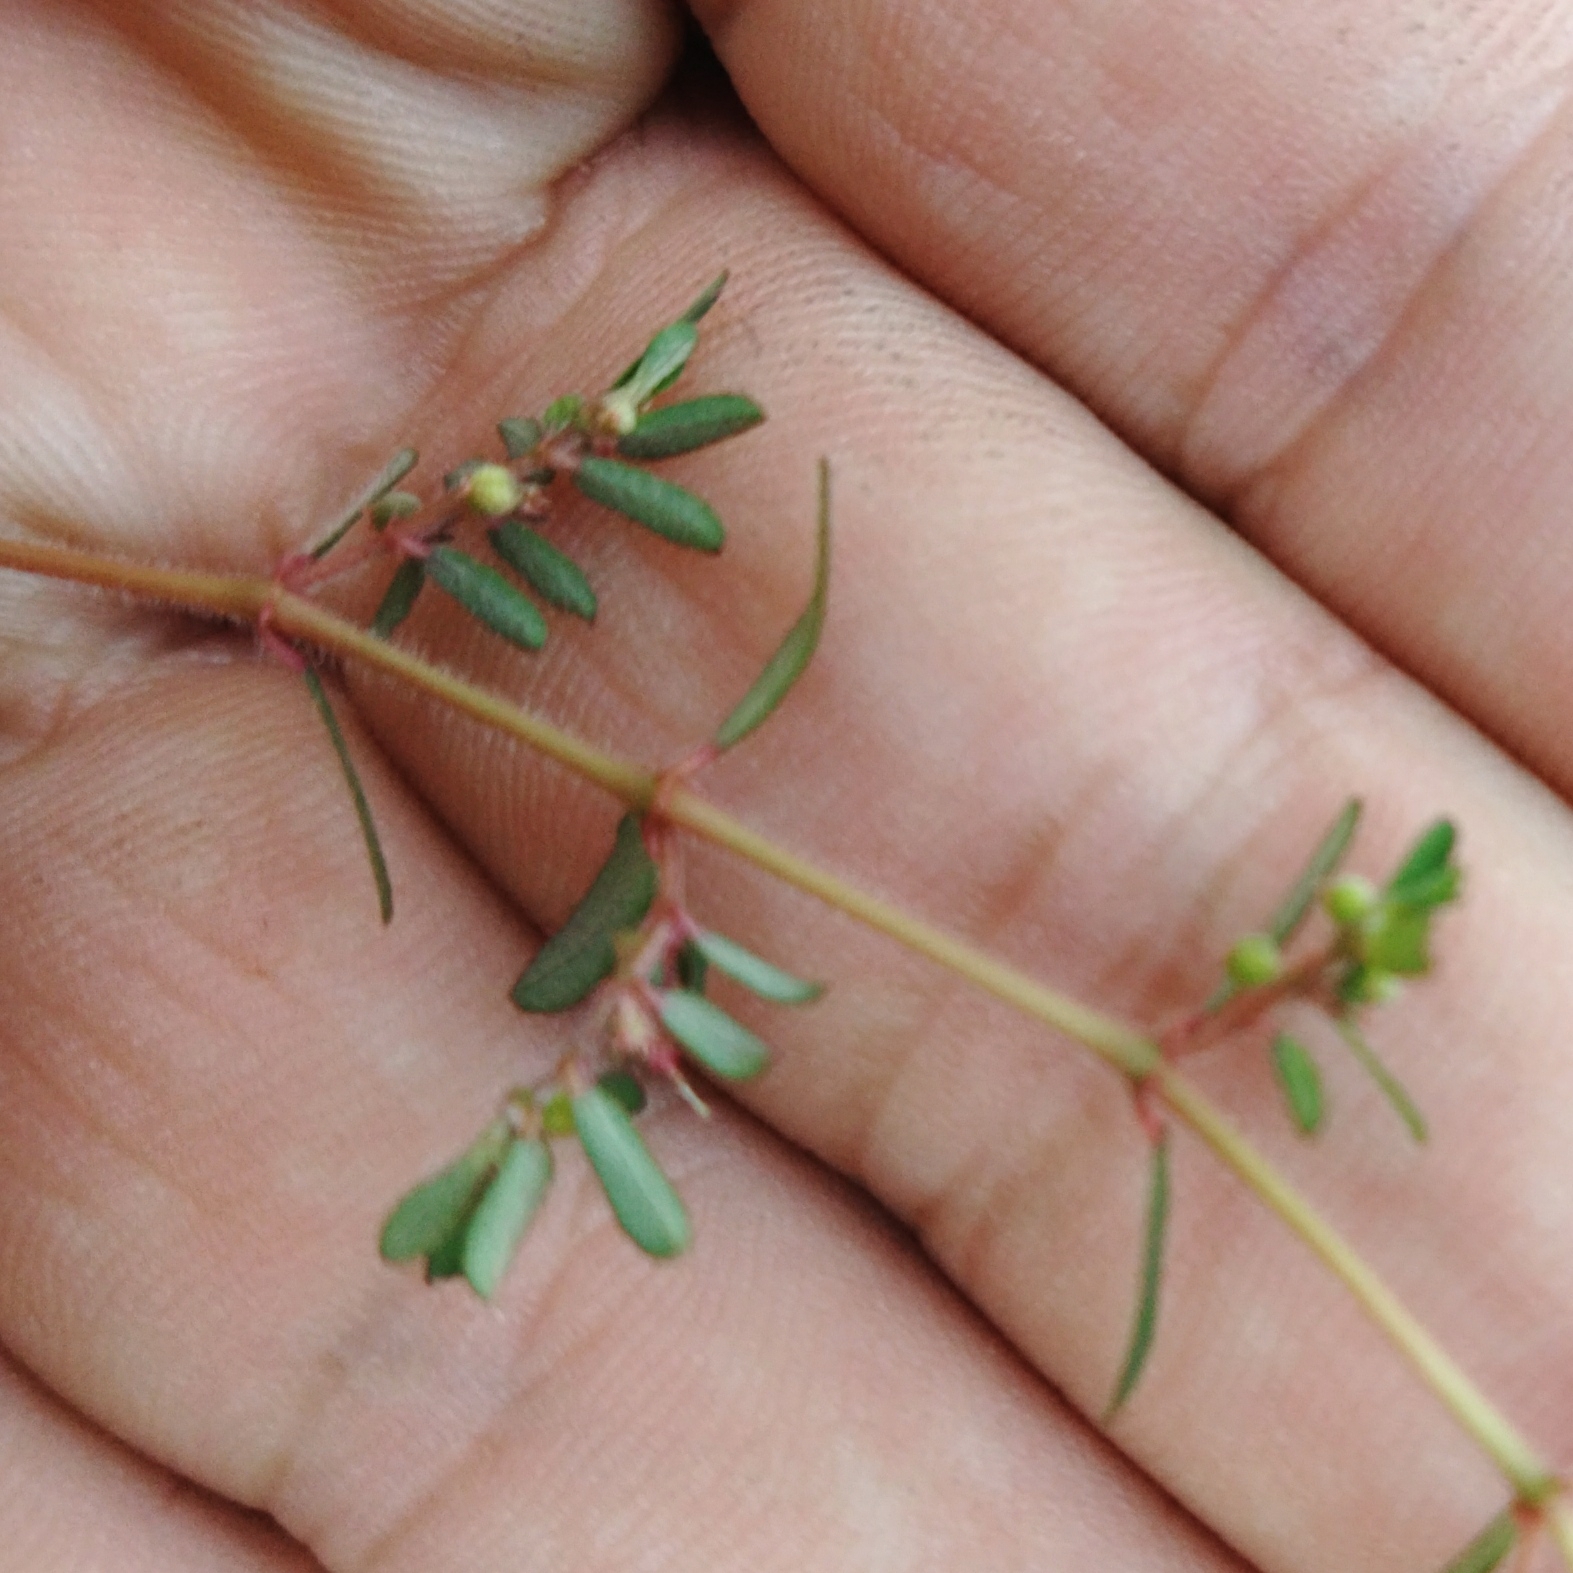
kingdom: Plantae
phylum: Tracheophyta
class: Magnoliopsida
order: Malpighiales
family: Euphorbiaceae
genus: Euphorbia
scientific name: Euphorbia maculata
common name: Spotted spurge
